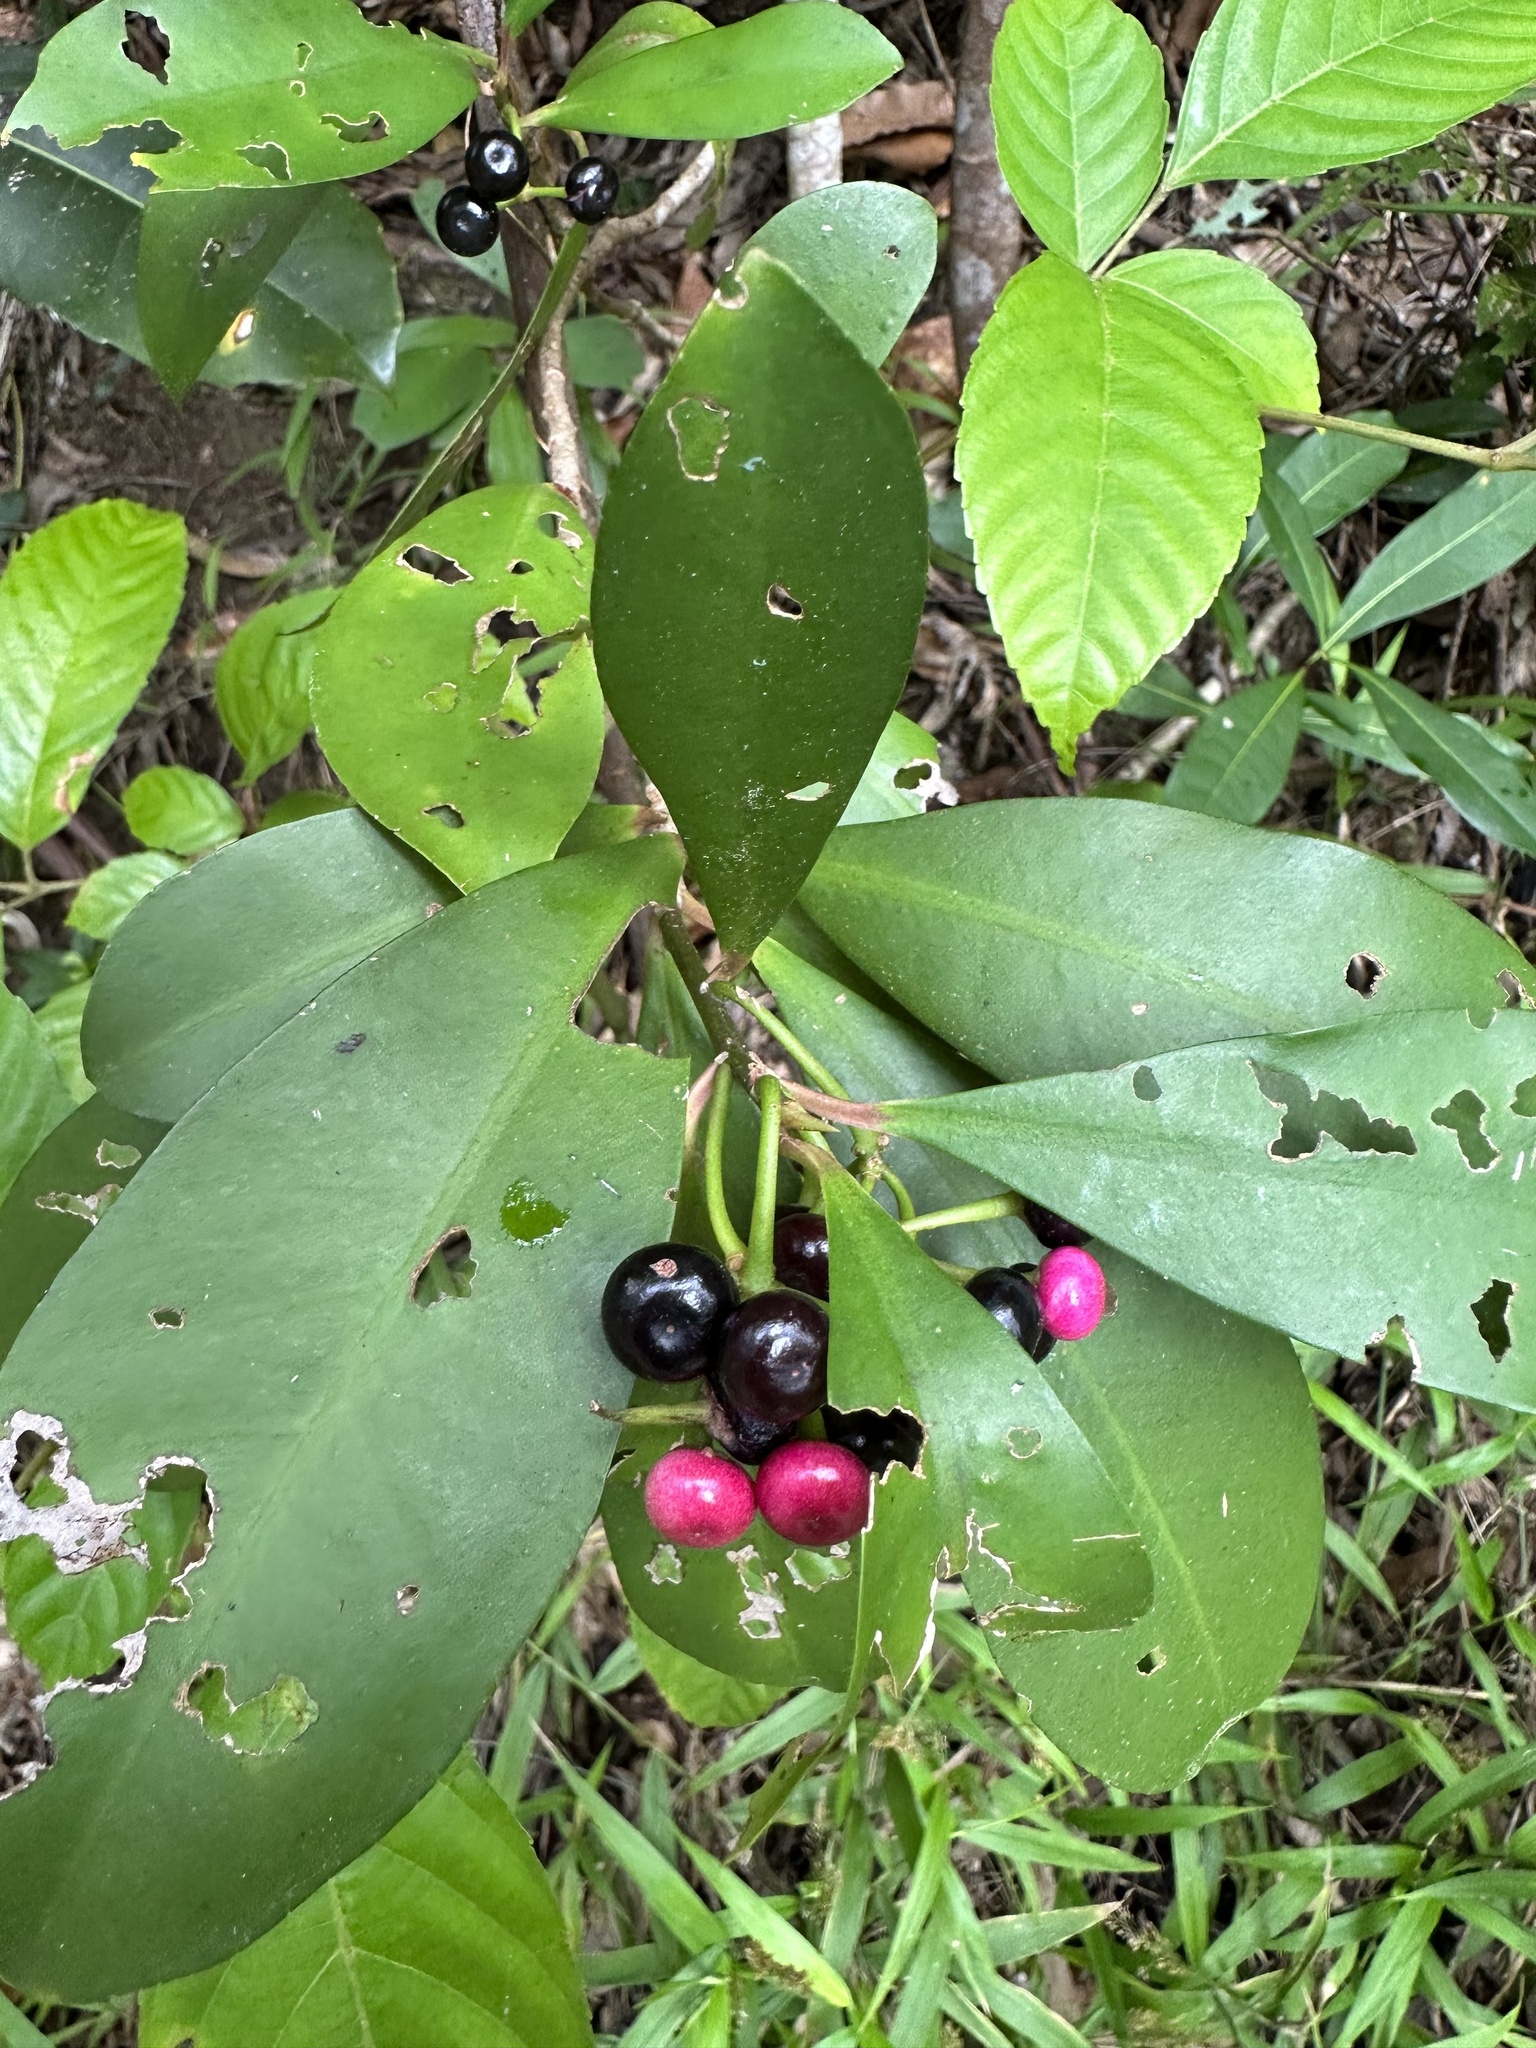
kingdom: Plantae
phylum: Tracheophyta
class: Magnoliopsida
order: Ericales
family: Primulaceae
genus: Ardisia
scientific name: Ardisia elliptica
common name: Shoebutton
